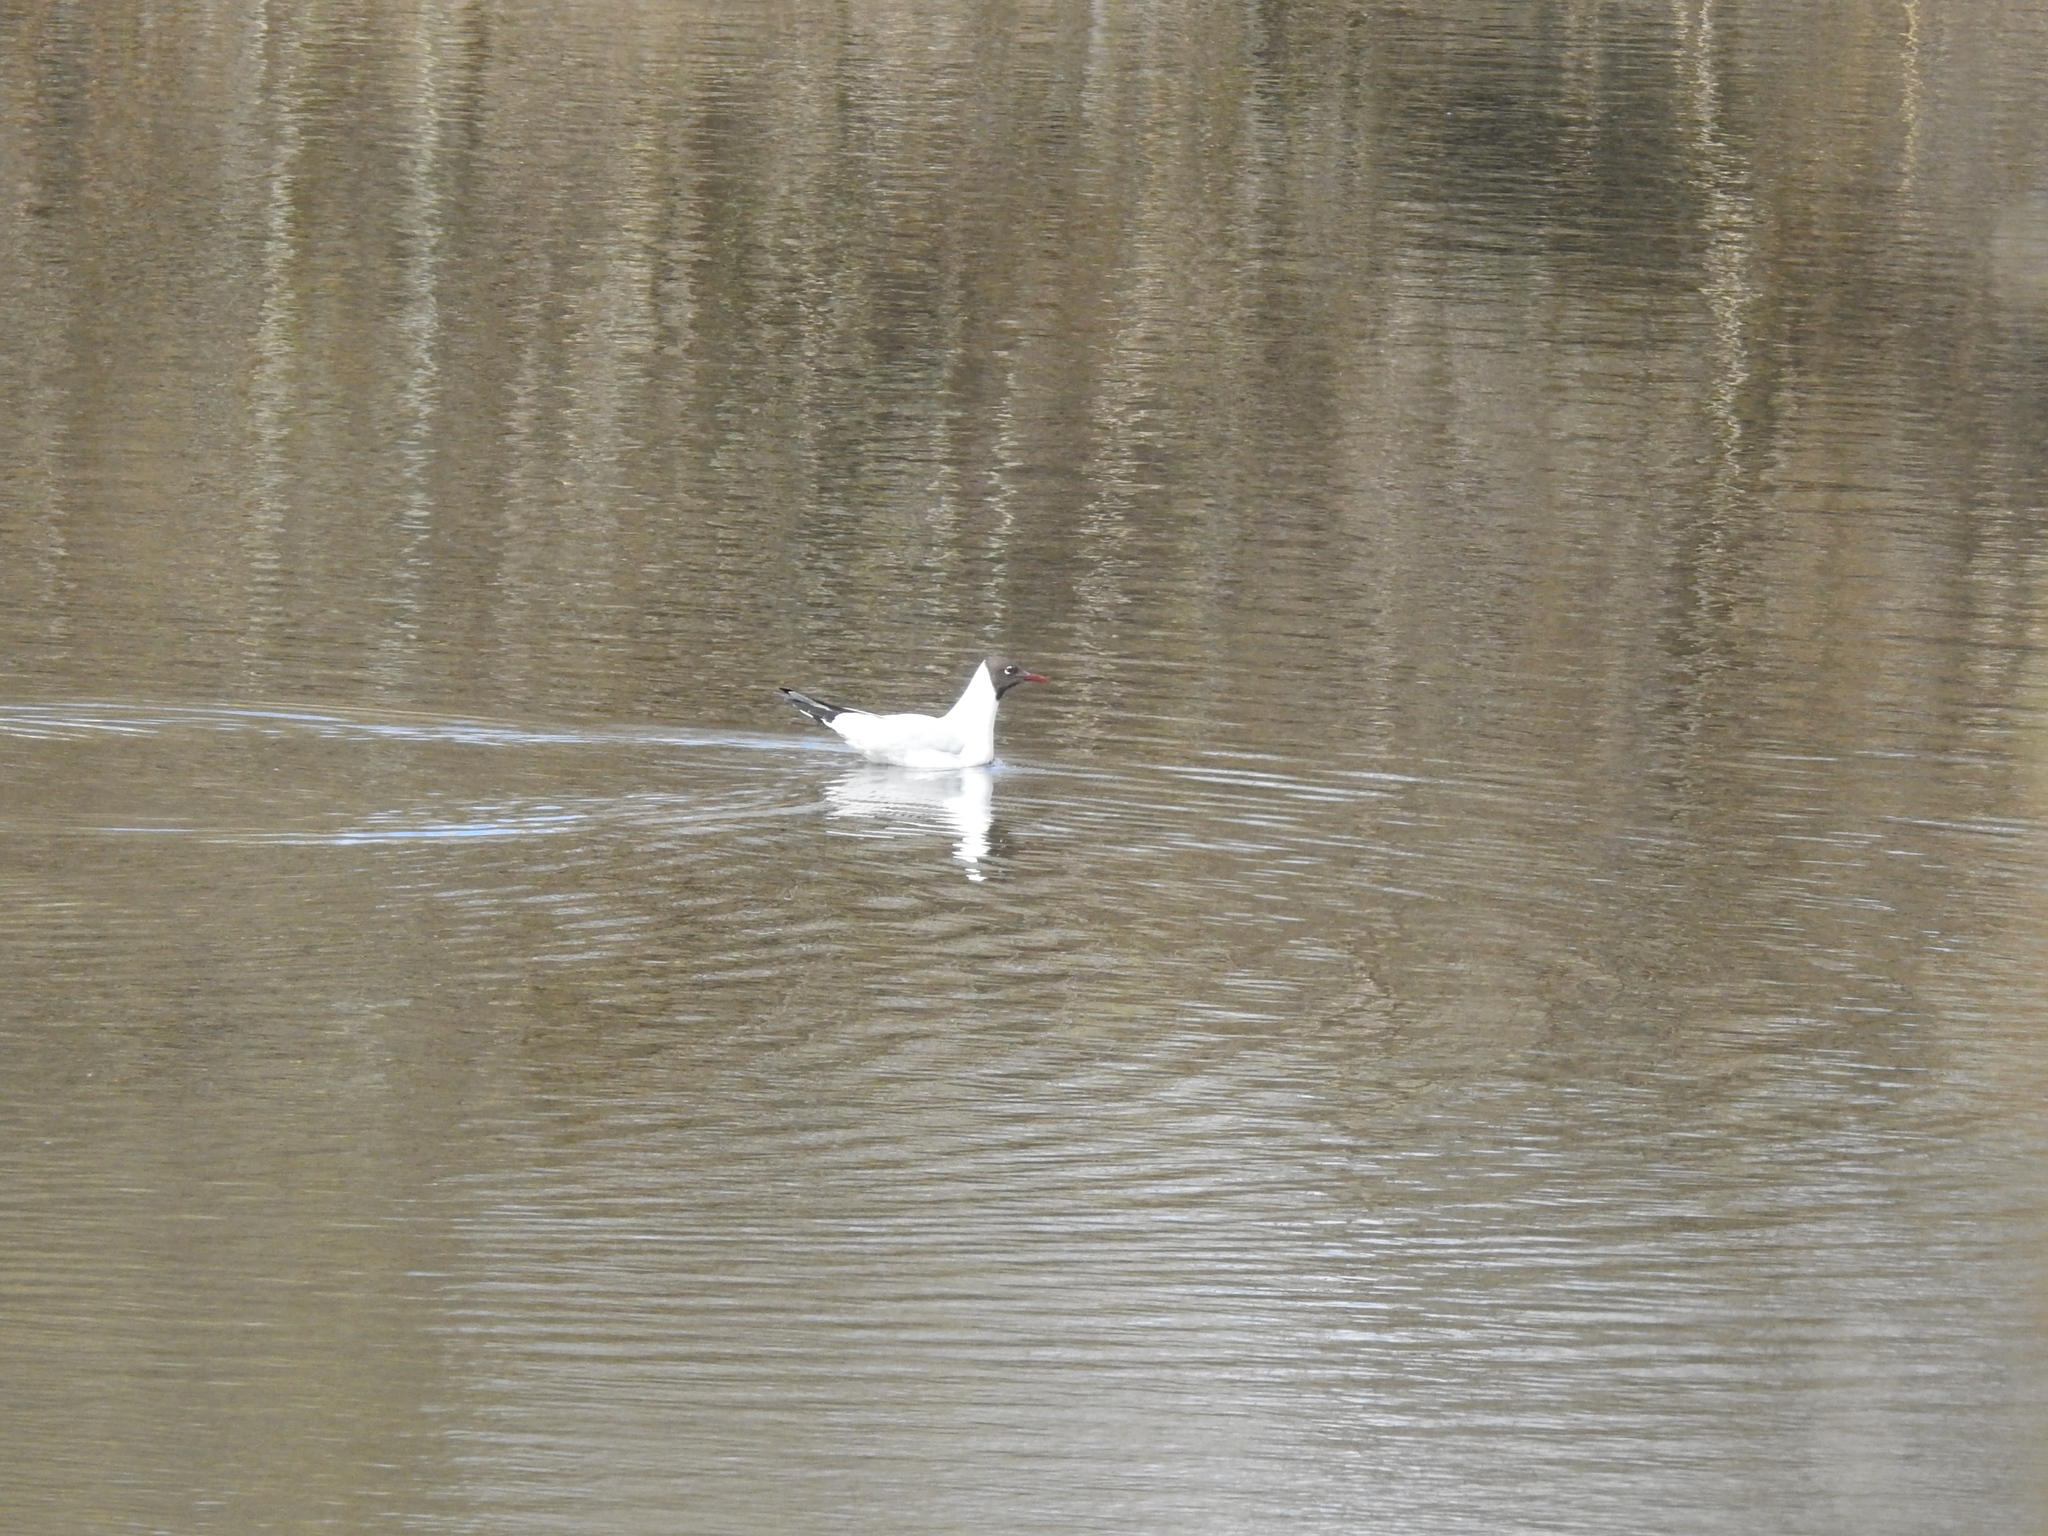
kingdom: Animalia
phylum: Chordata
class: Aves
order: Charadriiformes
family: Laridae
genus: Chroicocephalus
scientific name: Chroicocephalus ridibundus
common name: Black-headed gull
